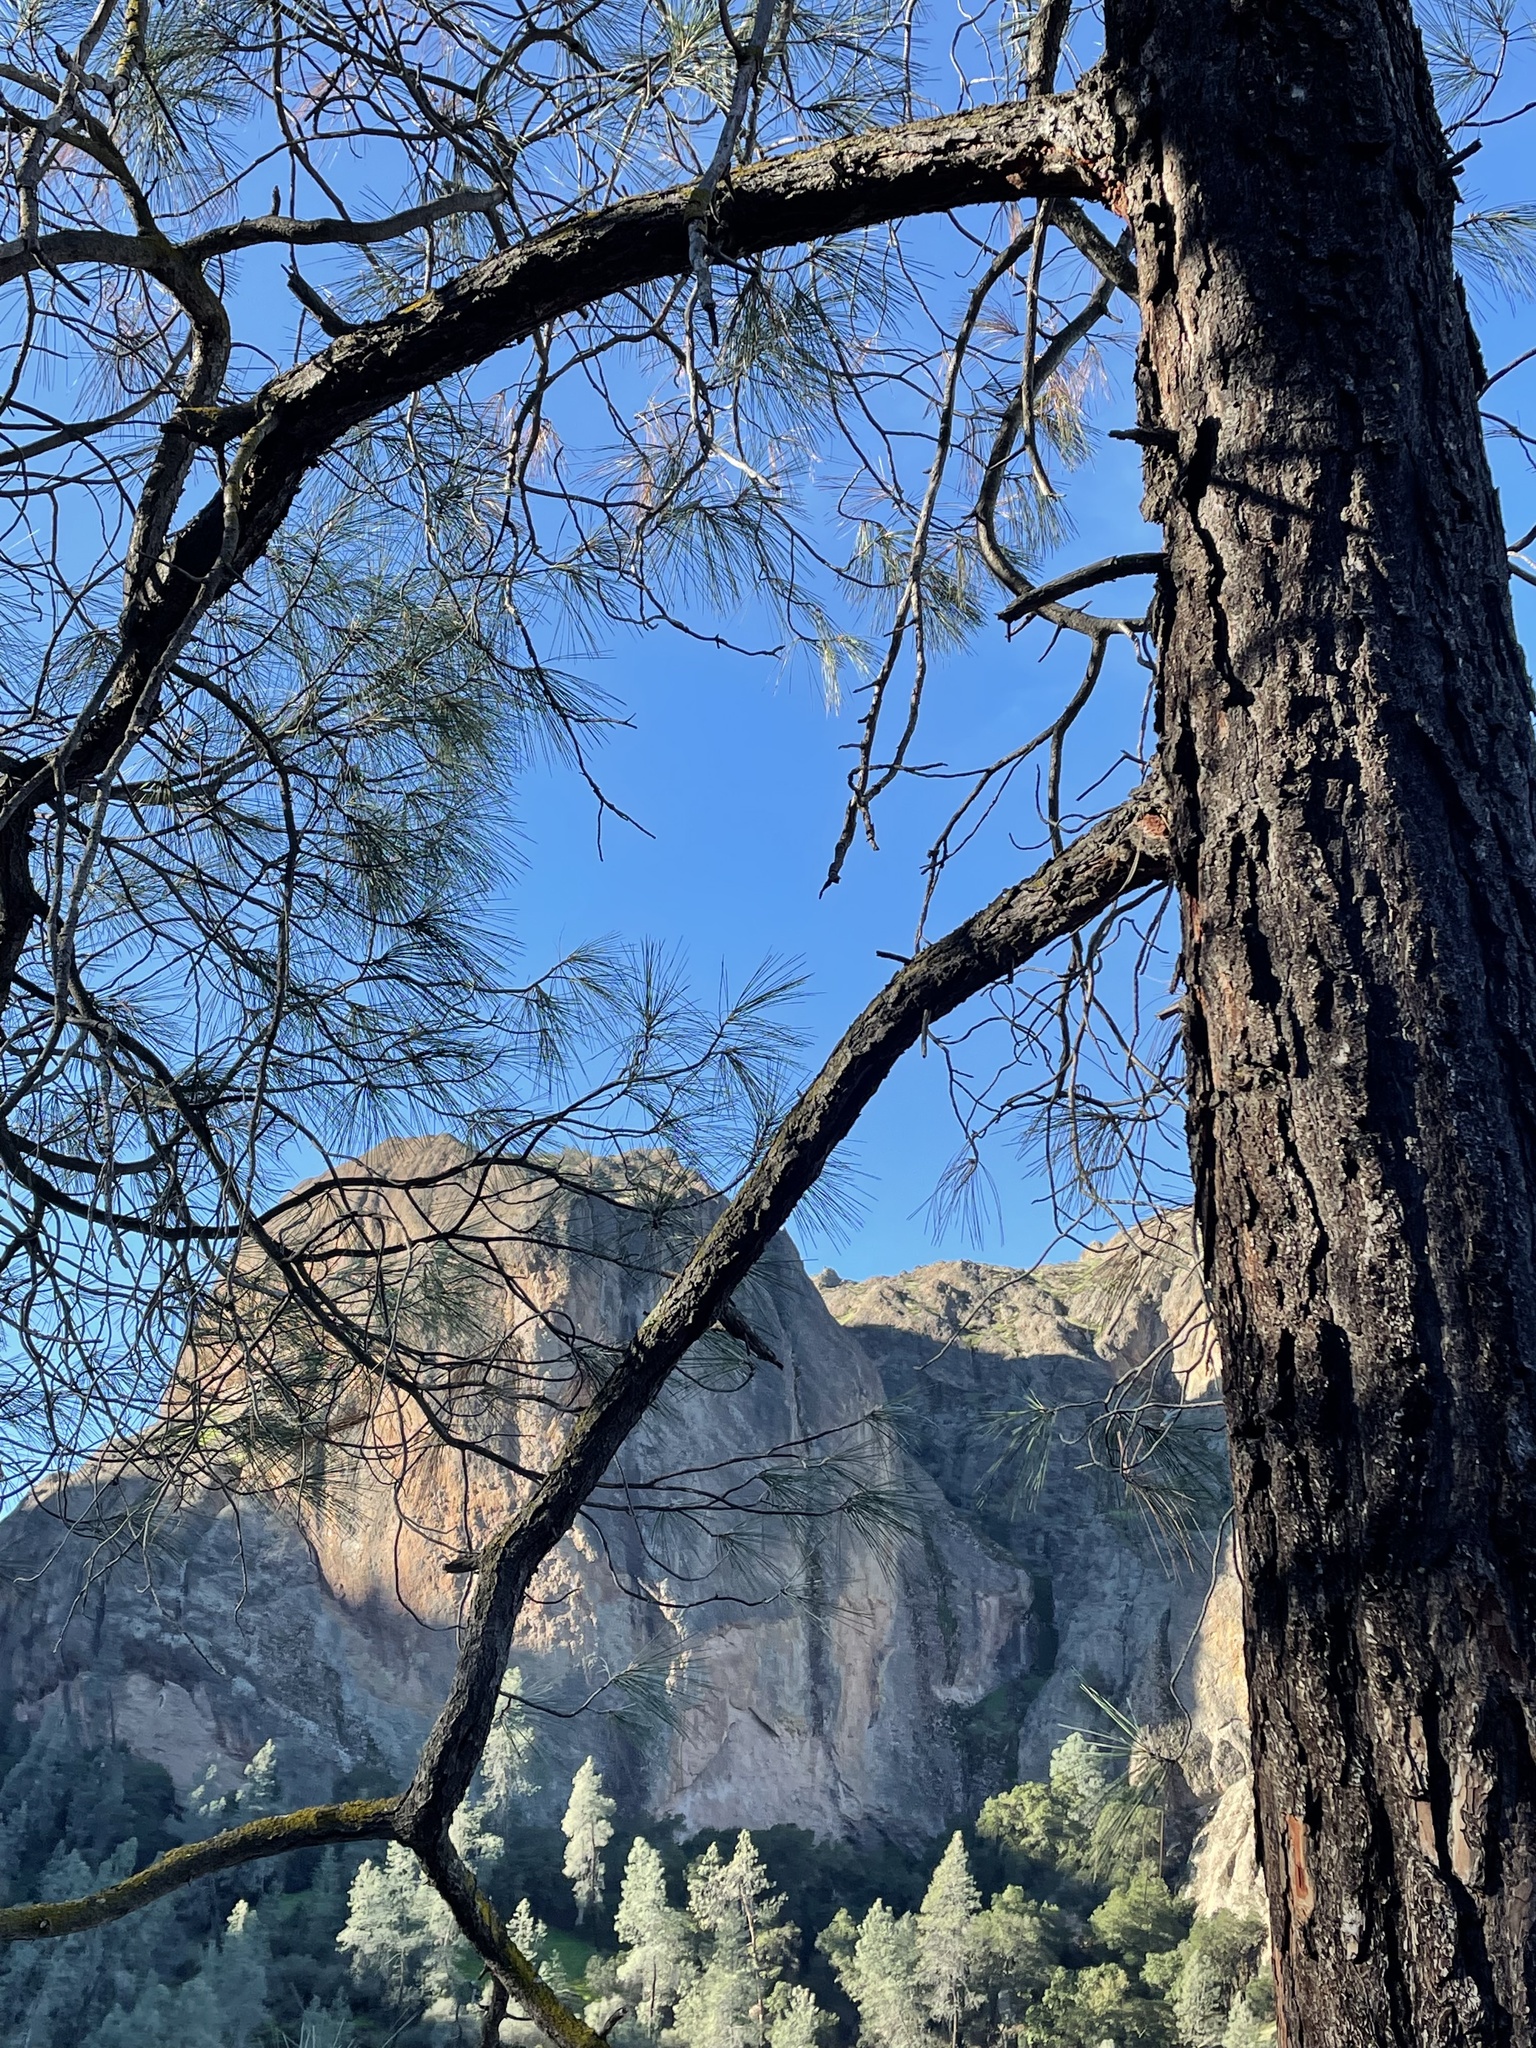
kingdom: Plantae
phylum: Tracheophyta
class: Pinopsida
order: Pinales
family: Pinaceae
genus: Pinus
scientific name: Pinus sabiniana
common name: Bull pine
